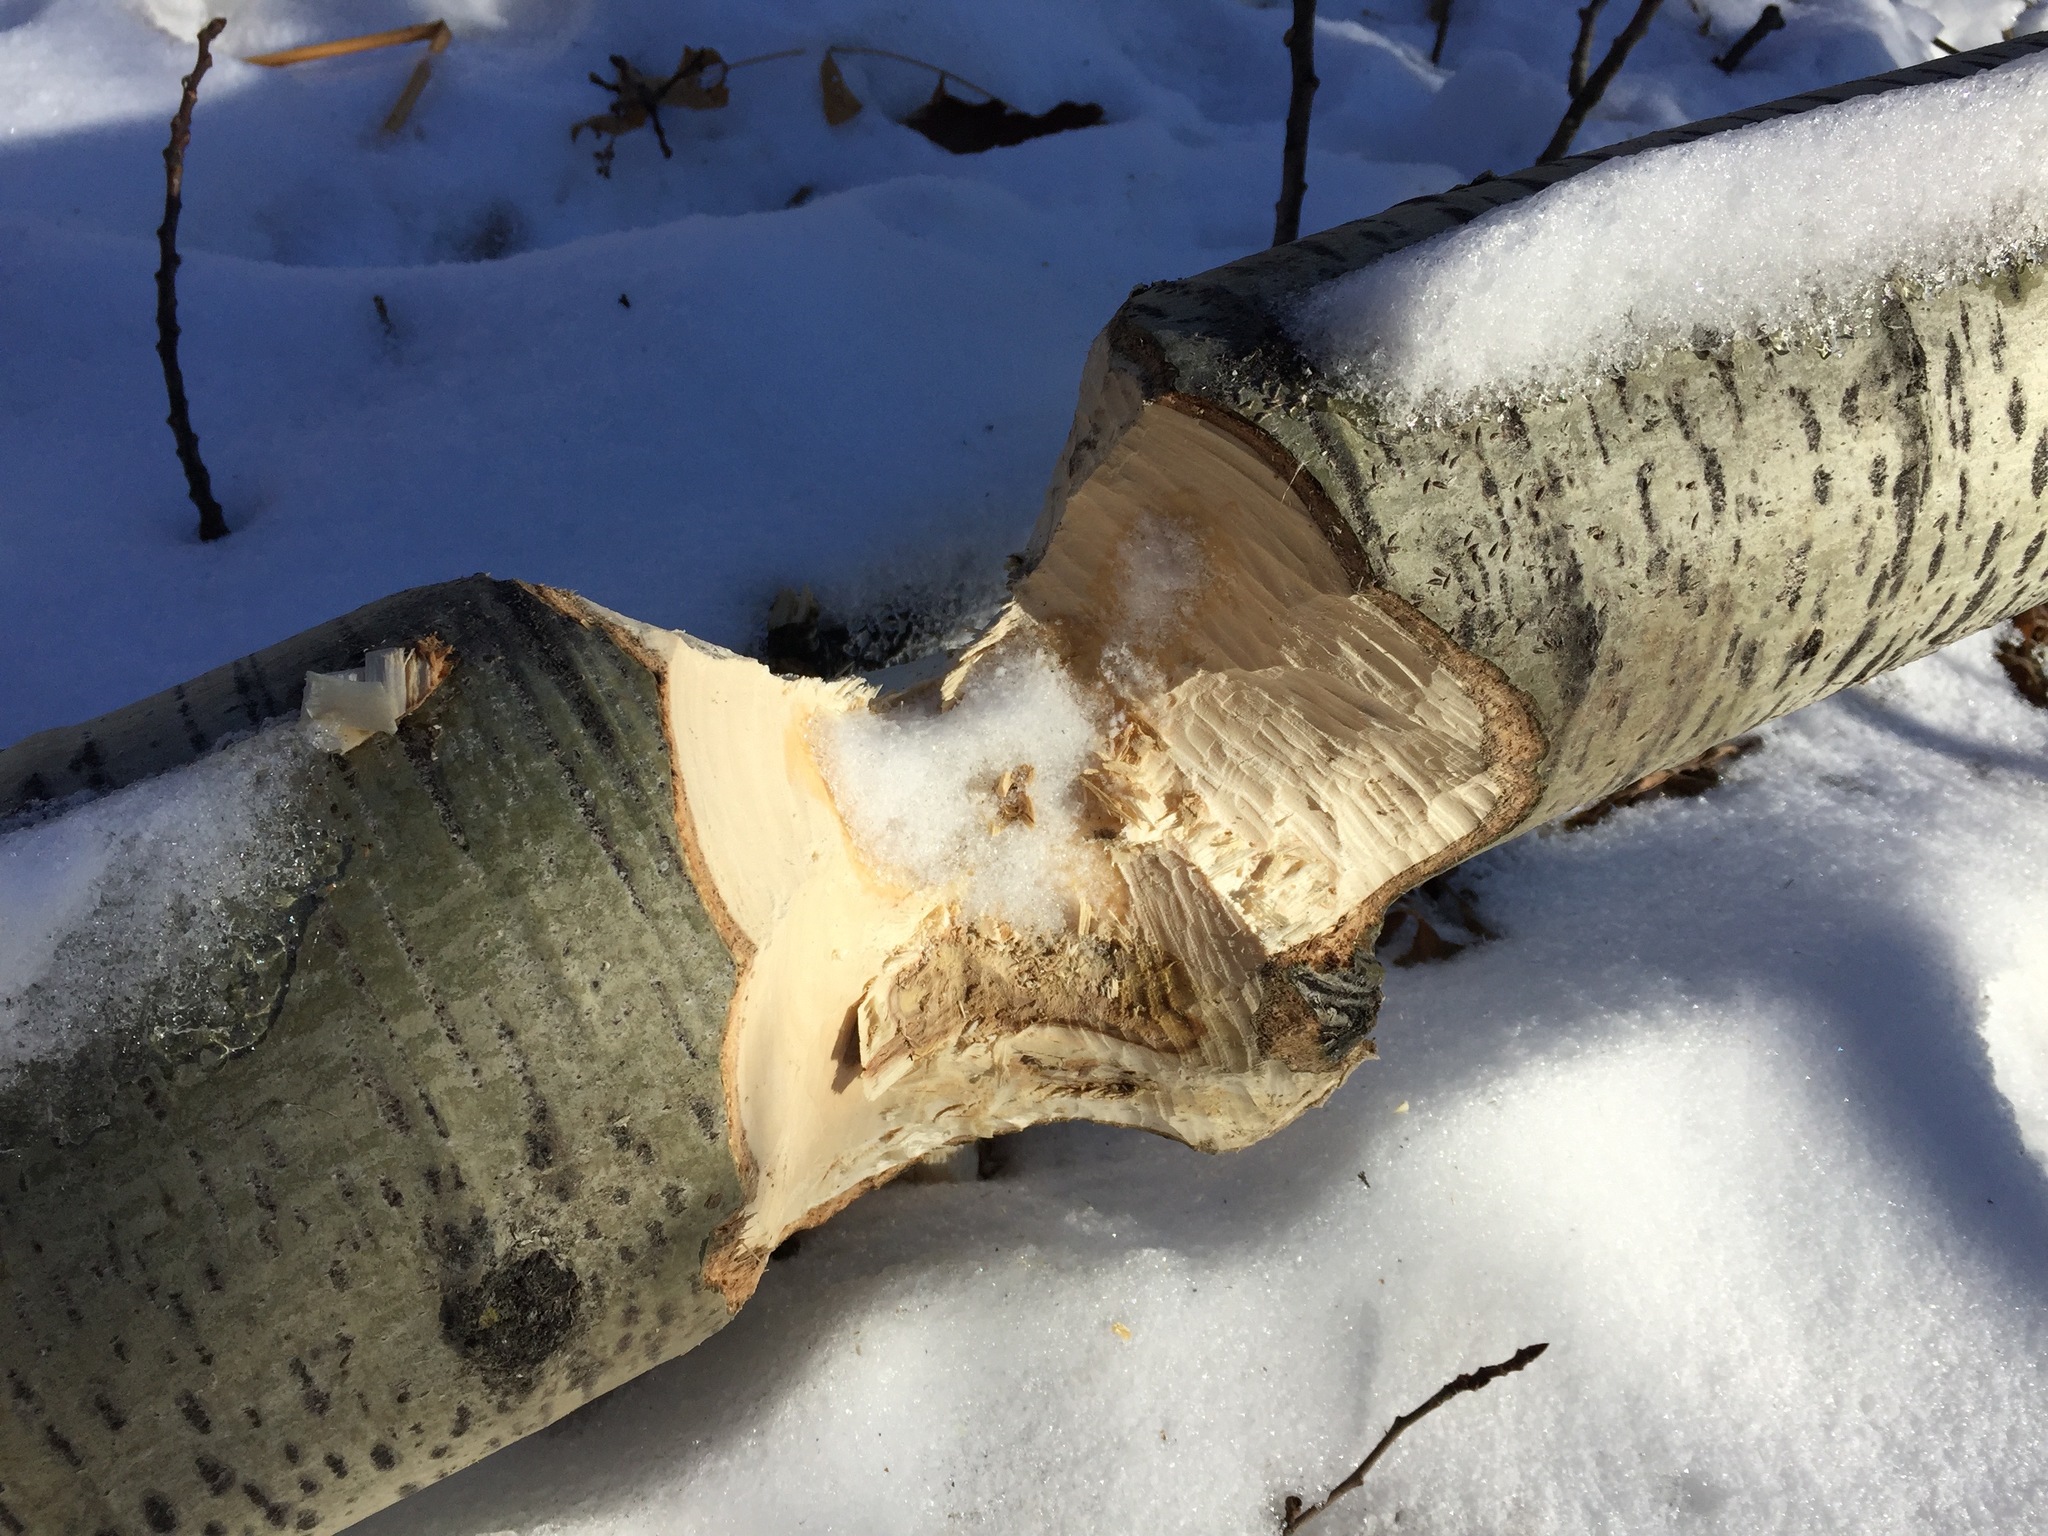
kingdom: Animalia
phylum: Chordata
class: Mammalia
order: Rodentia
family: Castoridae
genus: Castor
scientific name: Castor canadensis
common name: American beaver
